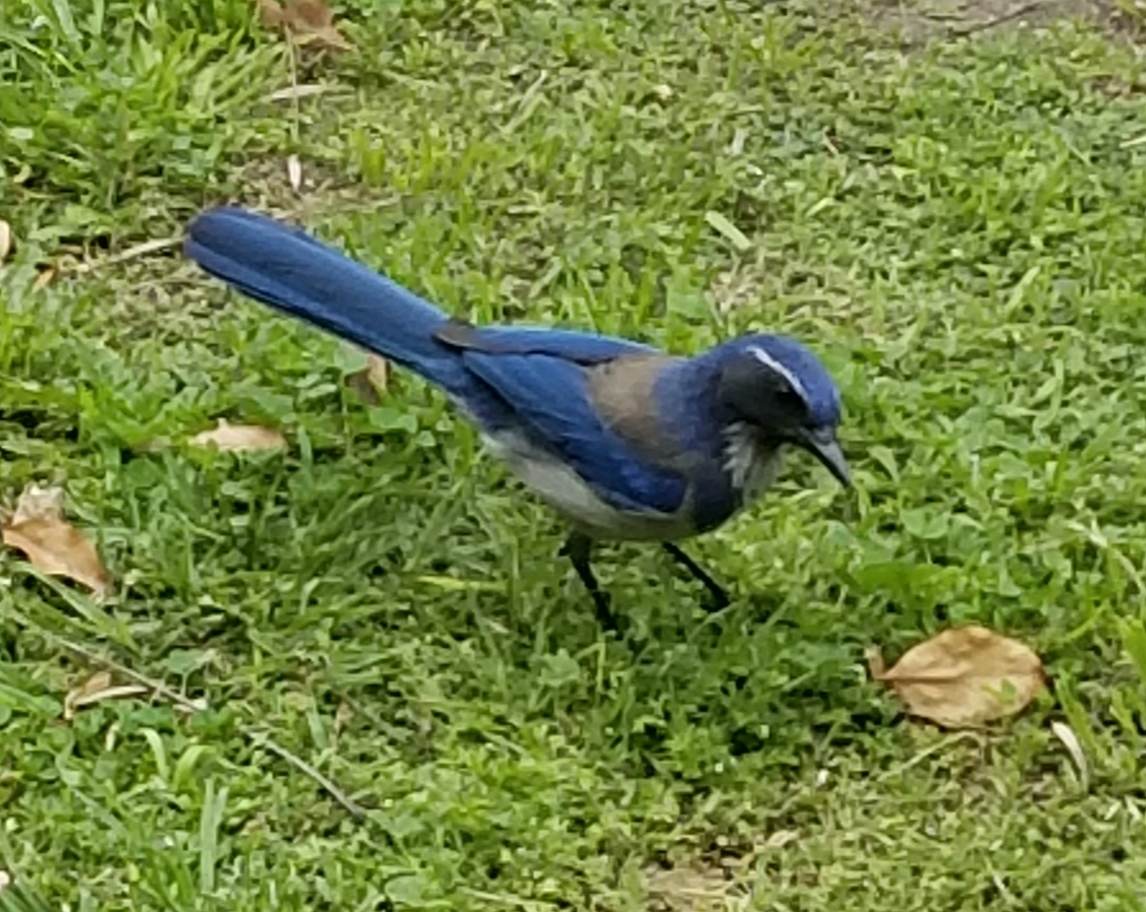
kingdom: Animalia
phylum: Chordata
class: Aves
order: Passeriformes
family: Corvidae
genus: Aphelocoma
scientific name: Aphelocoma californica
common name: California scrub-jay
